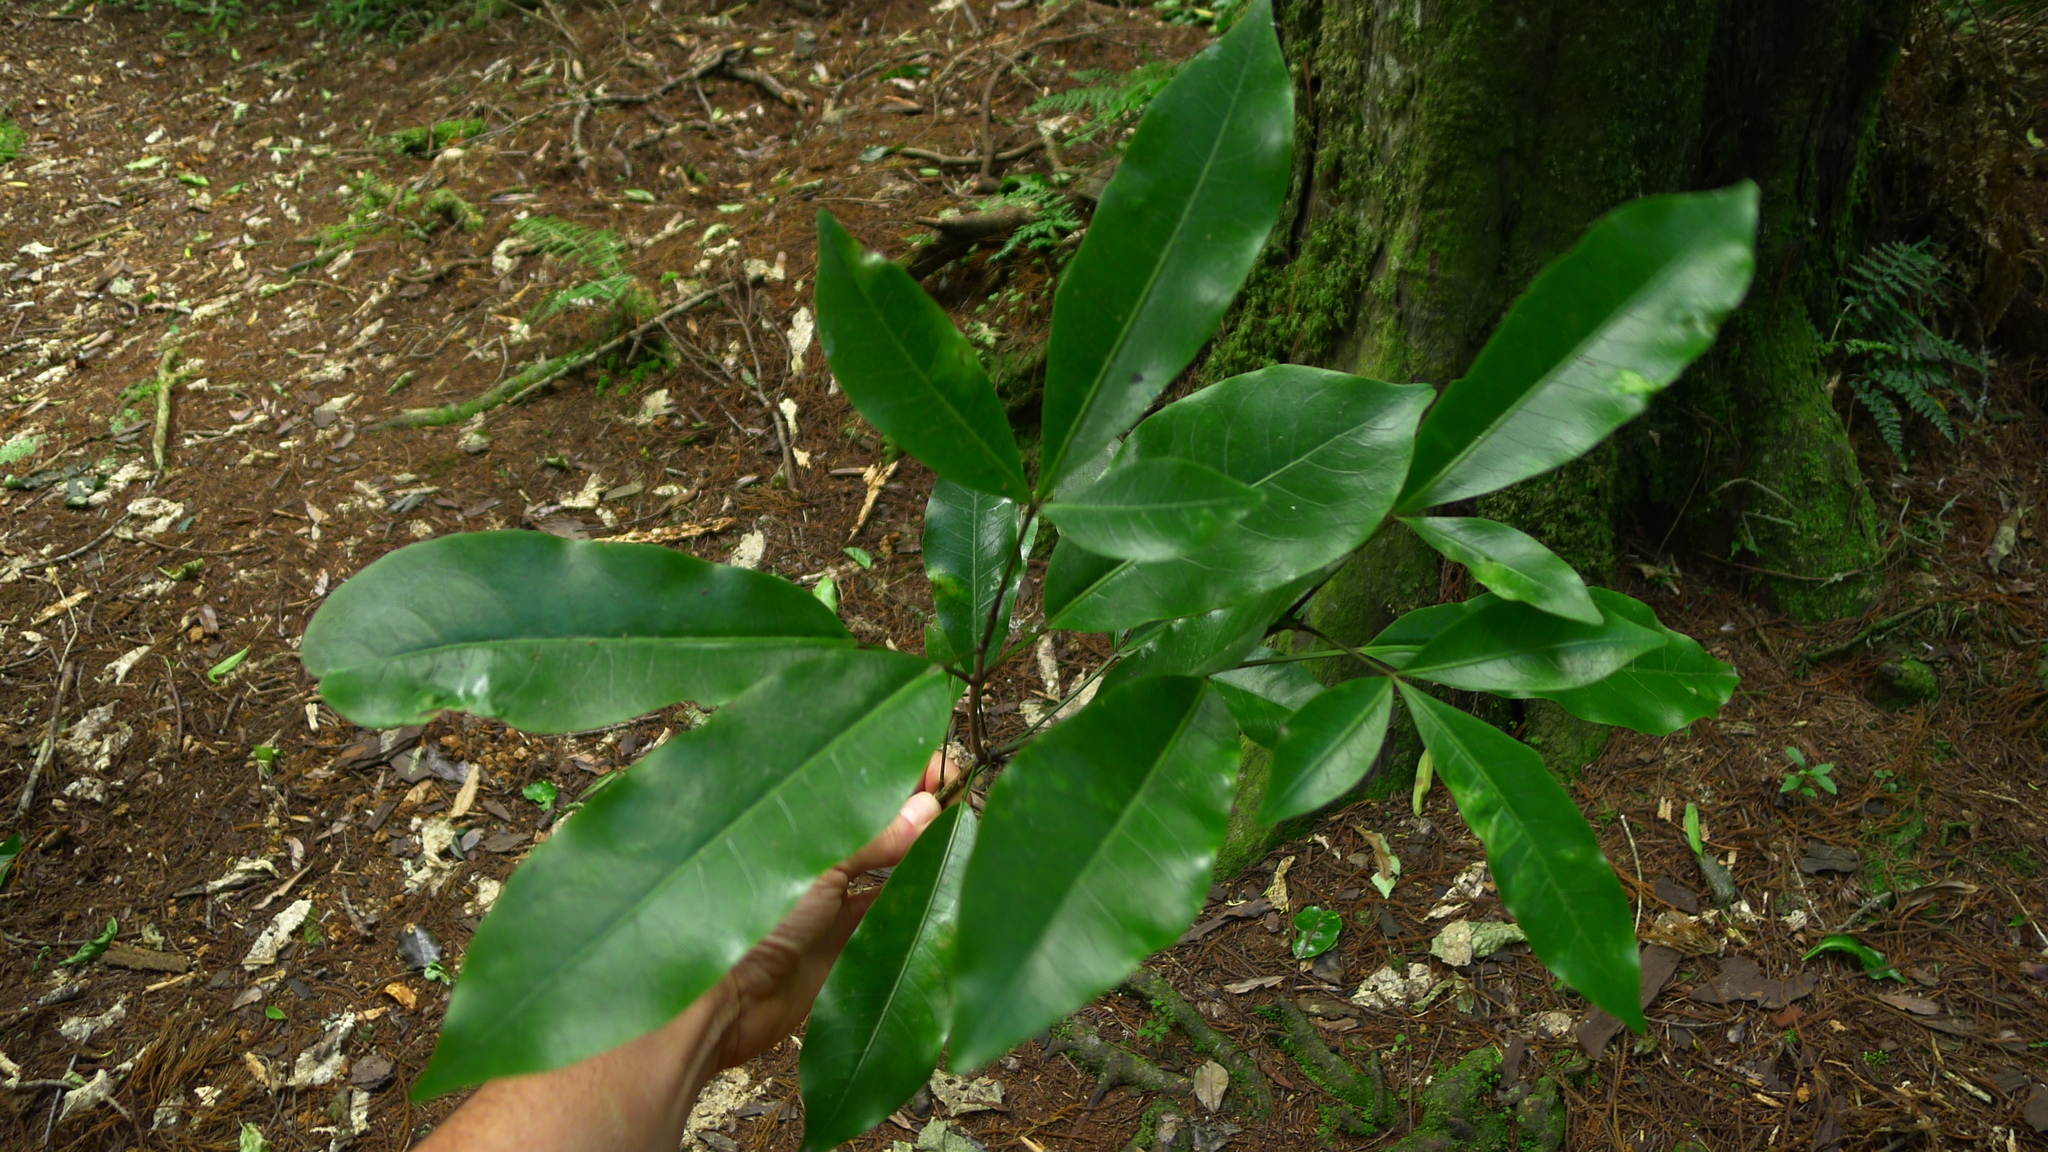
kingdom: Plantae
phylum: Tracheophyta
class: Magnoliopsida
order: Apiales
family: Araliaceae
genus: Raukaua
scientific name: Raukaua edgerleyi
